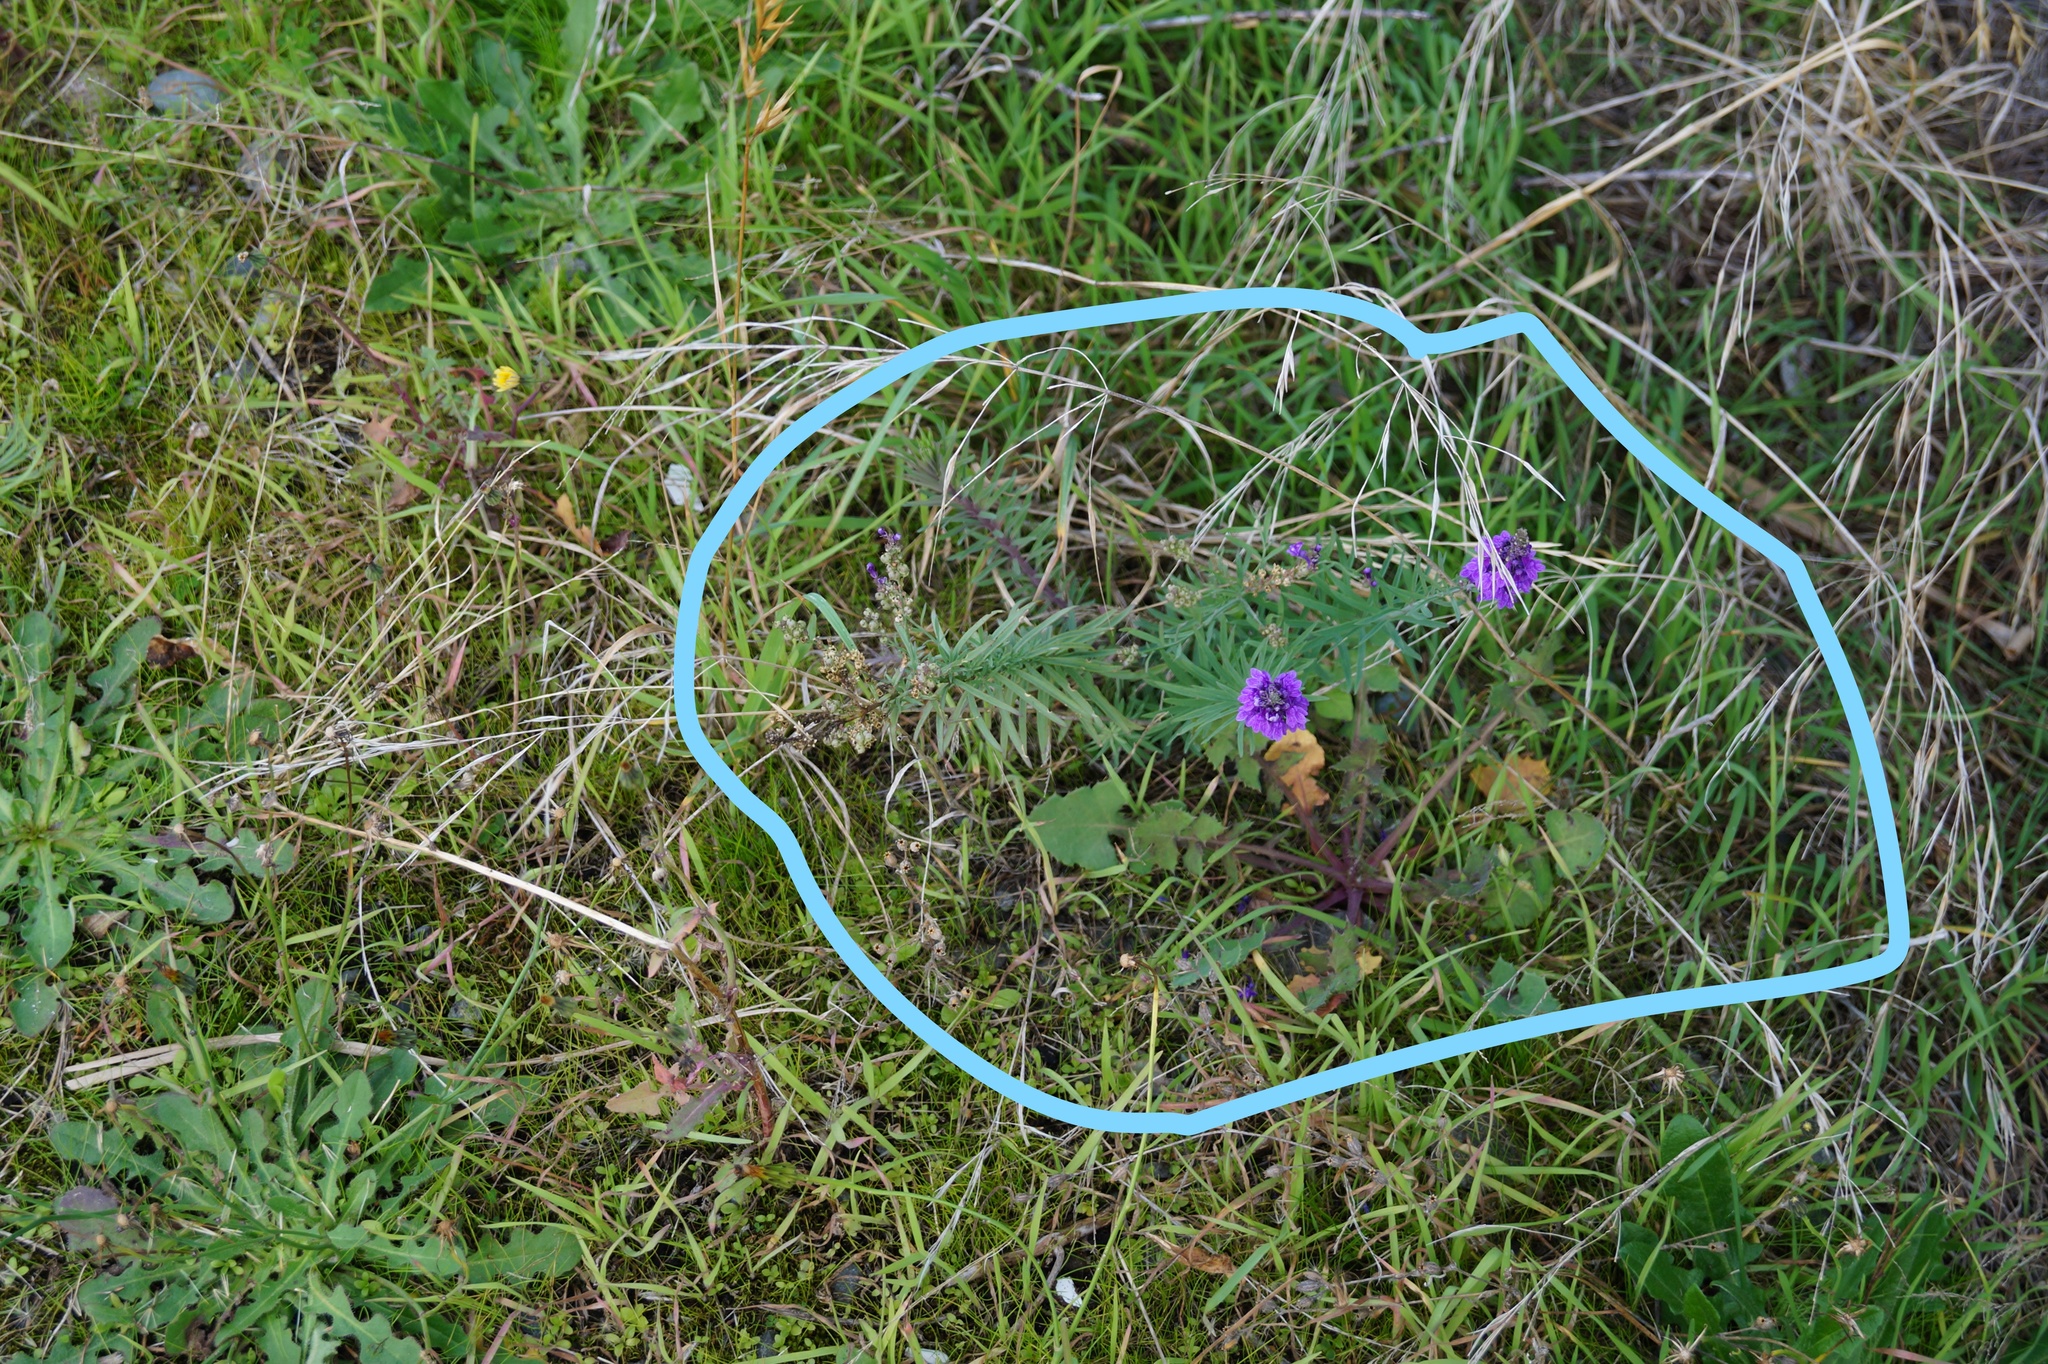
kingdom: Plantae
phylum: Tracheophyta
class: Magnoliopsida
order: Lamiales
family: Plantaginaceae
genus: Linaria
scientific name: Linaria purpurea
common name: Purple toadflax
